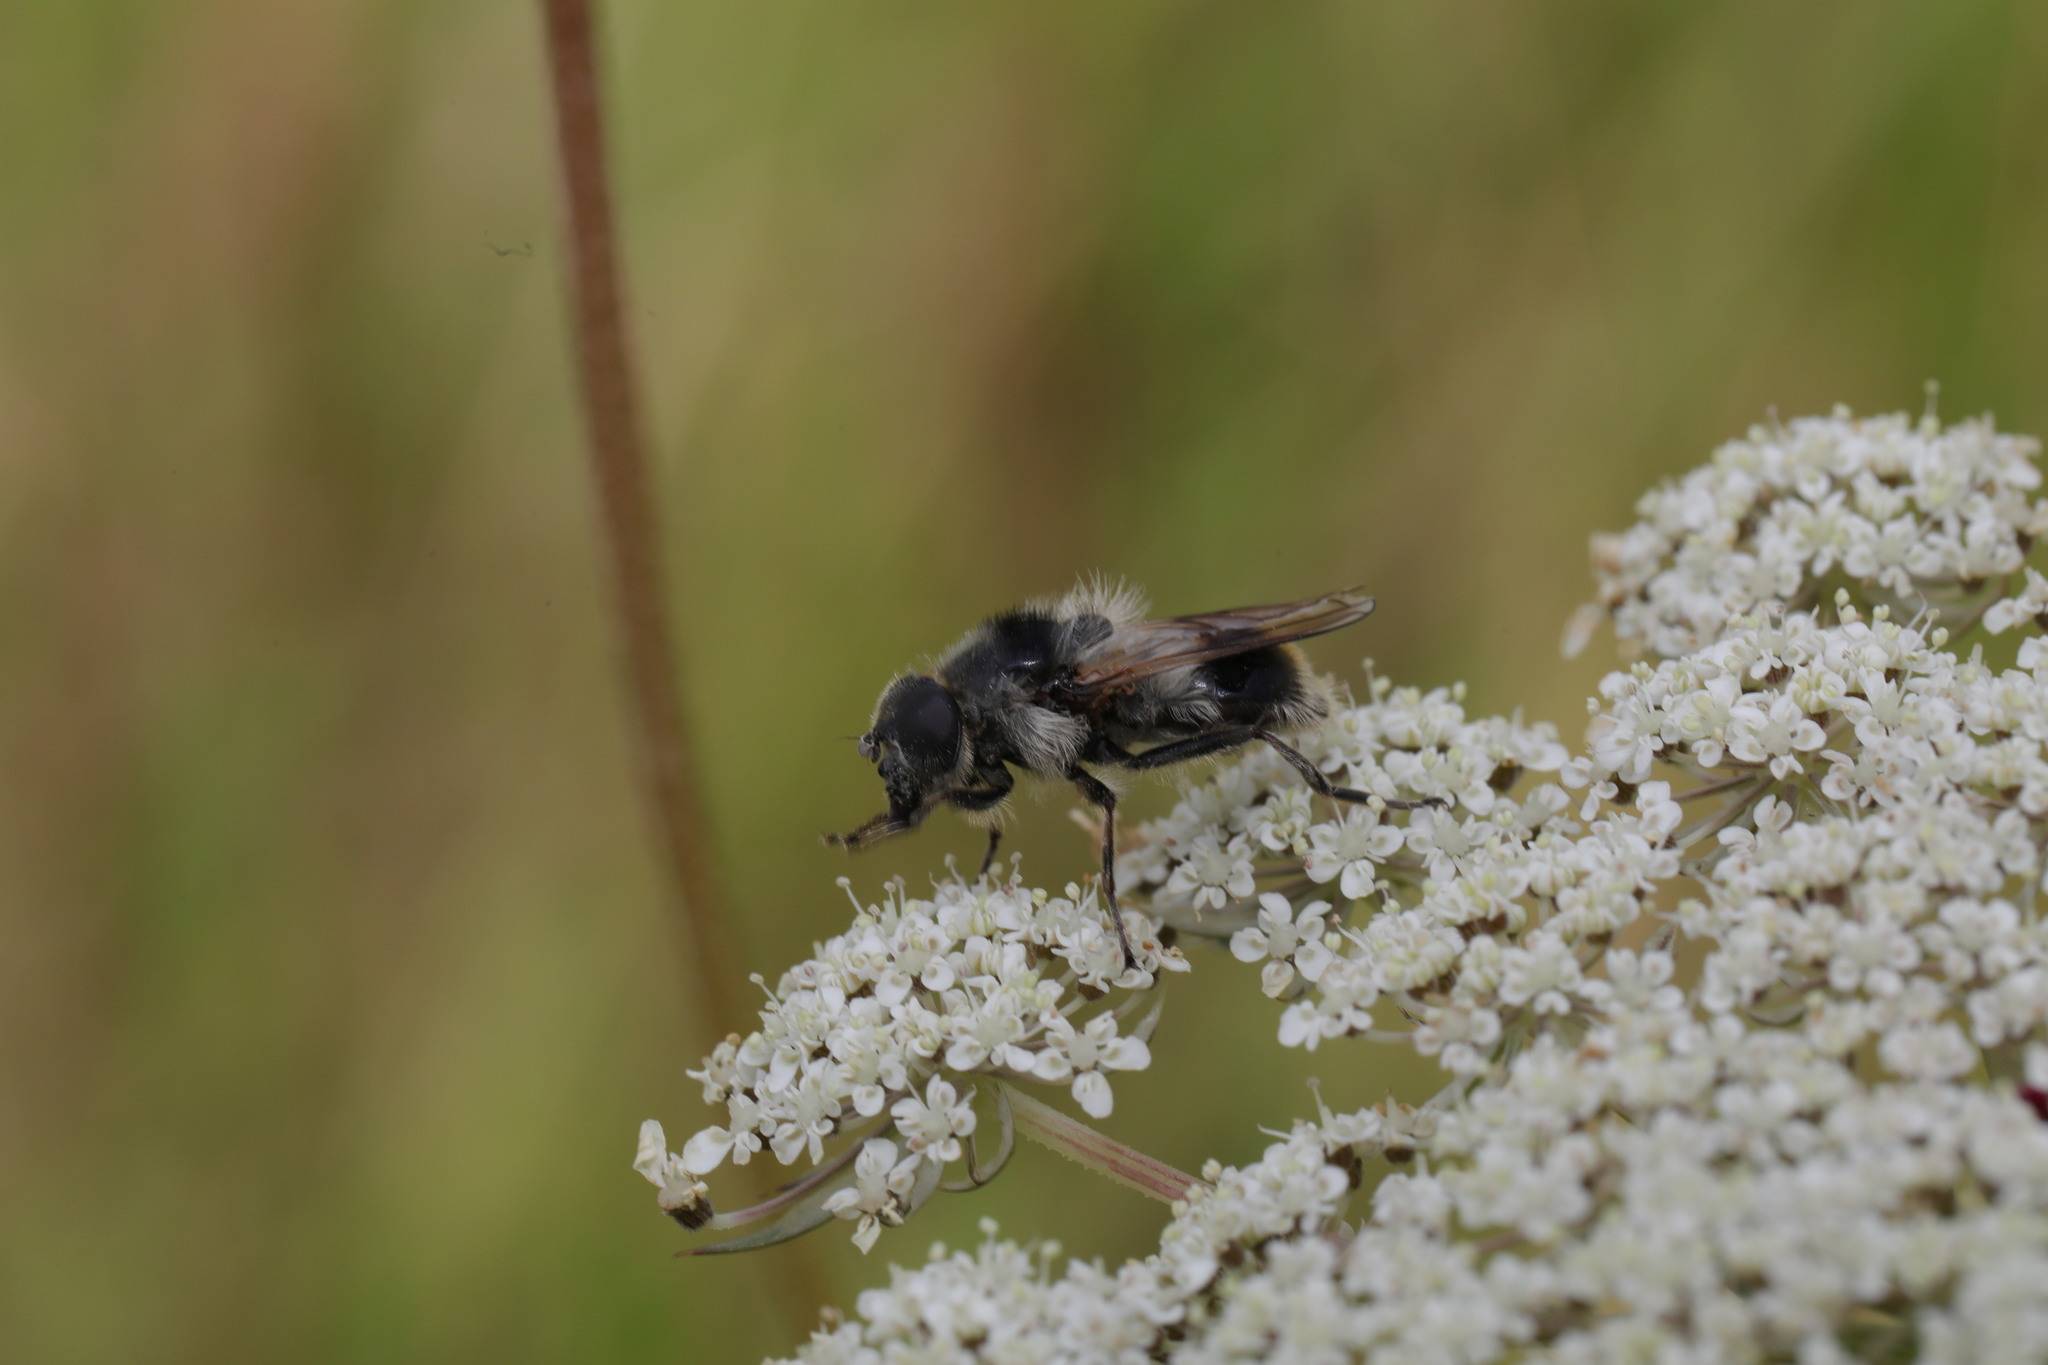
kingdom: Animalia
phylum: Arthropoda
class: Insecta
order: Diptera
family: Syrphidae
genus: Cheilosia
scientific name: Cheilosia illustrata
